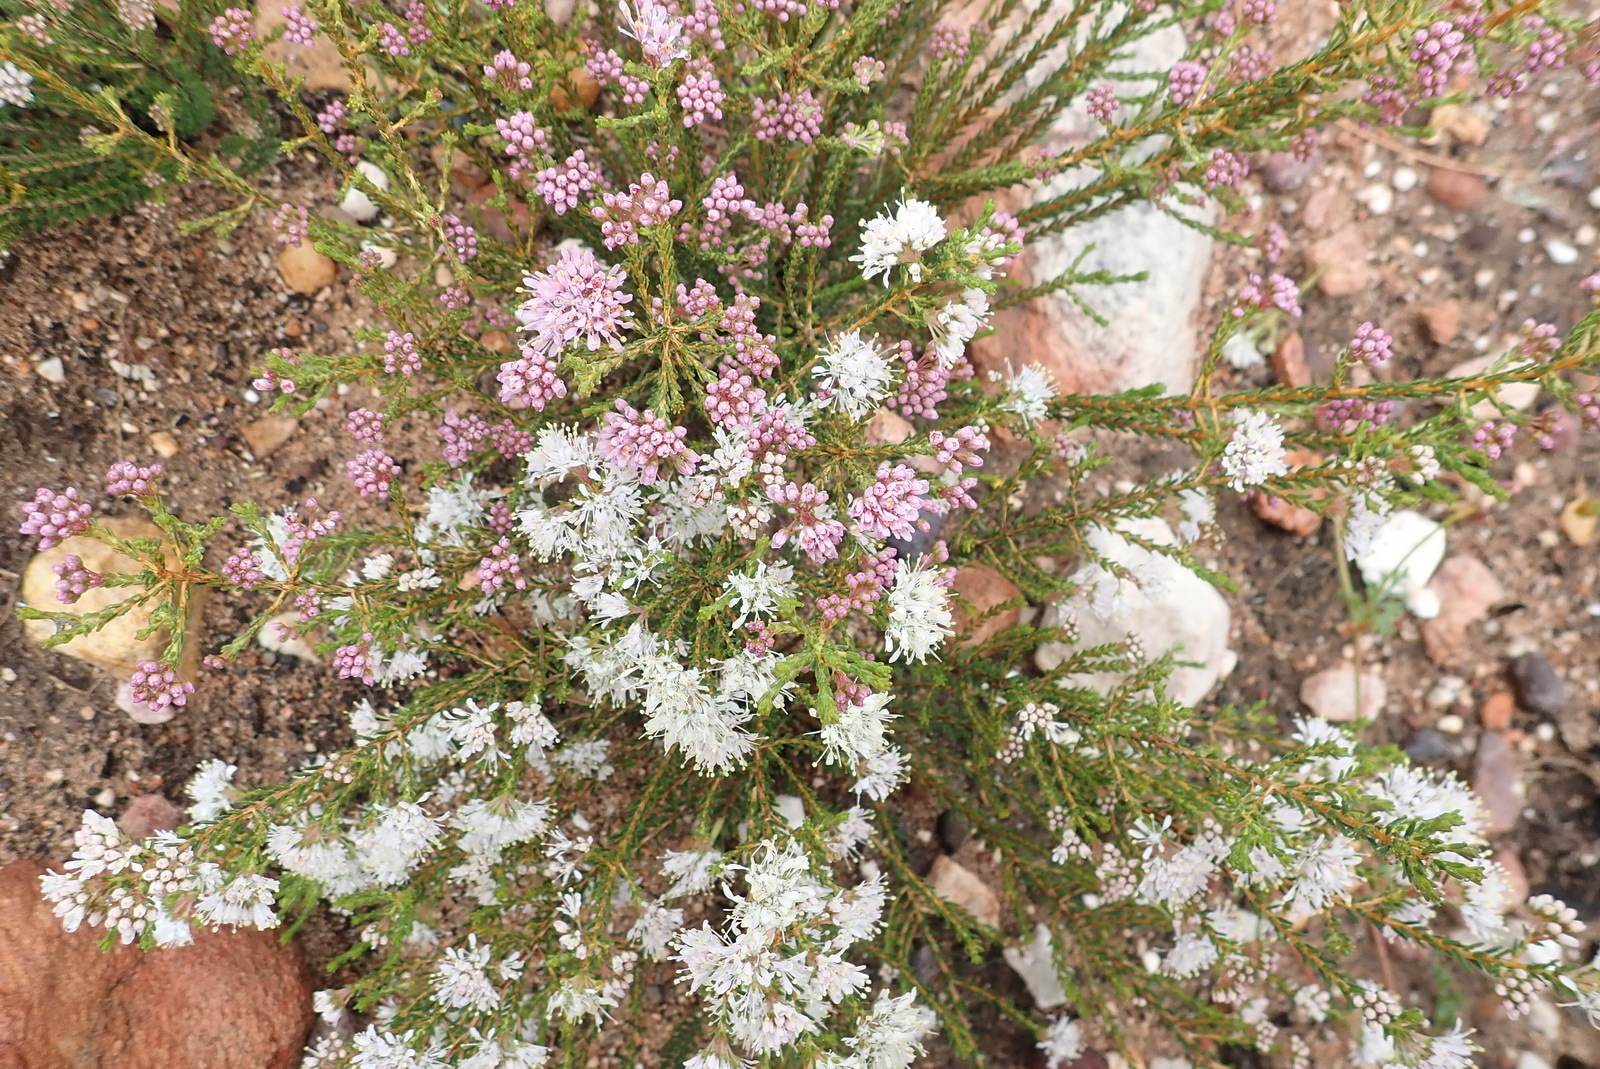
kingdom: Plantae
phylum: Tracheophyta
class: Magnoliopsida
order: Sapindales
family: Rutaceae
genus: Agathosma
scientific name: Agathosma capensis
